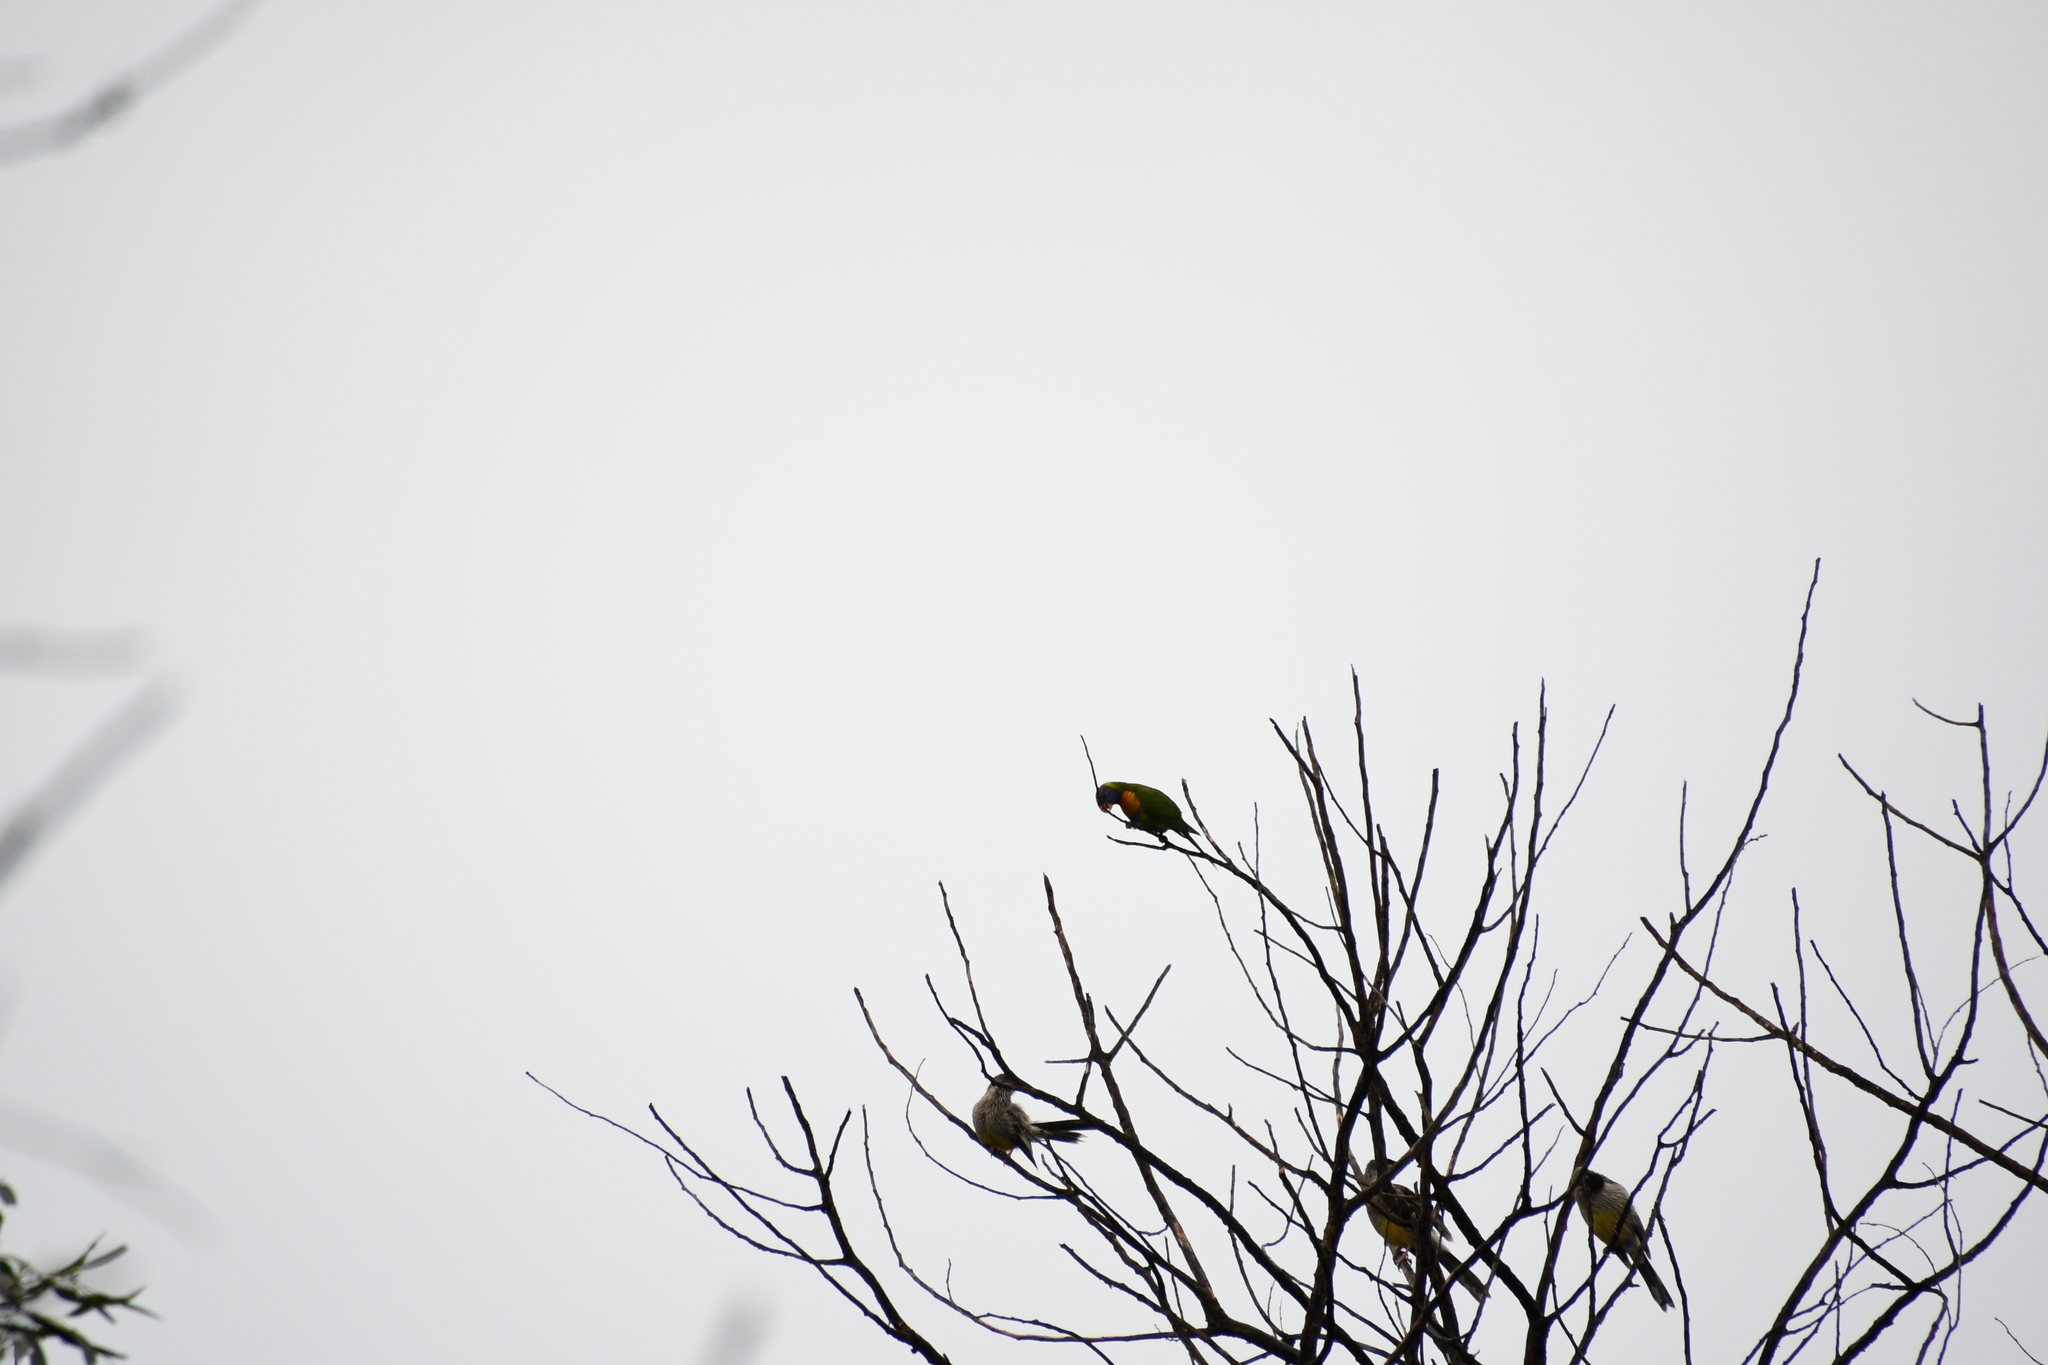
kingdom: Animalia
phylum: Chordata
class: Aves
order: Psittaciformes
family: Psittacidae
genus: Trichoglossus
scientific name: Trichoglossus haematodus
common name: Coconut lorikeet
